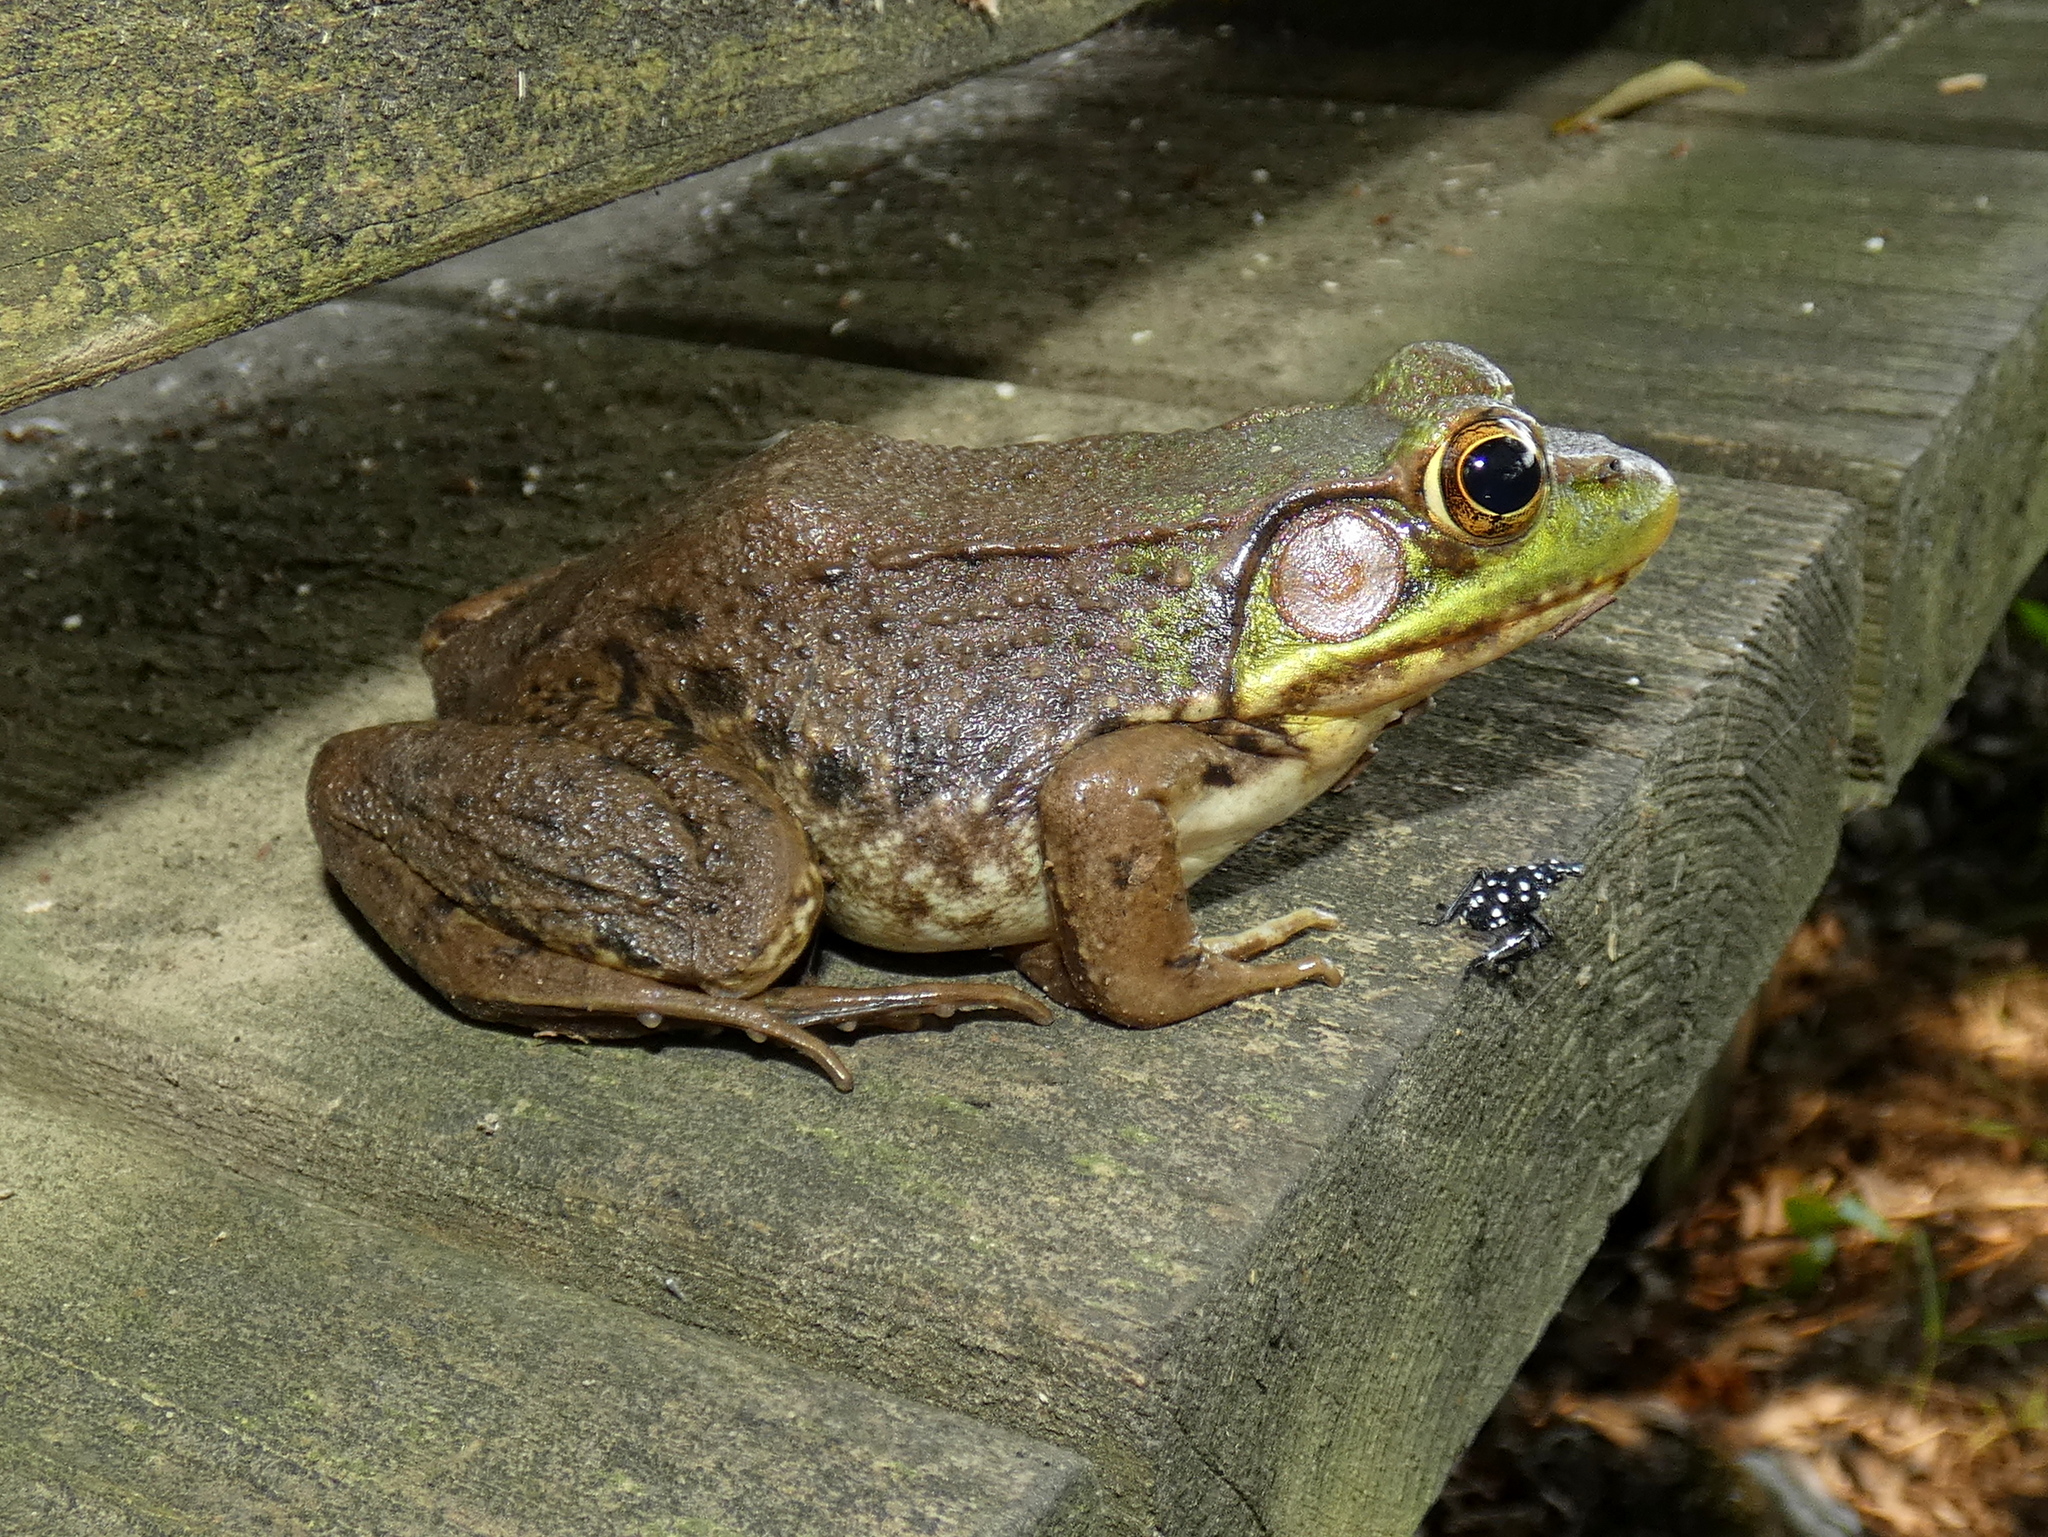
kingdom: Animalia
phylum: Chordata
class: Amphibia
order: Anura
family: Ranidae
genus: Lithobates
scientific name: Lithobates clamitans
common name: Green frog
